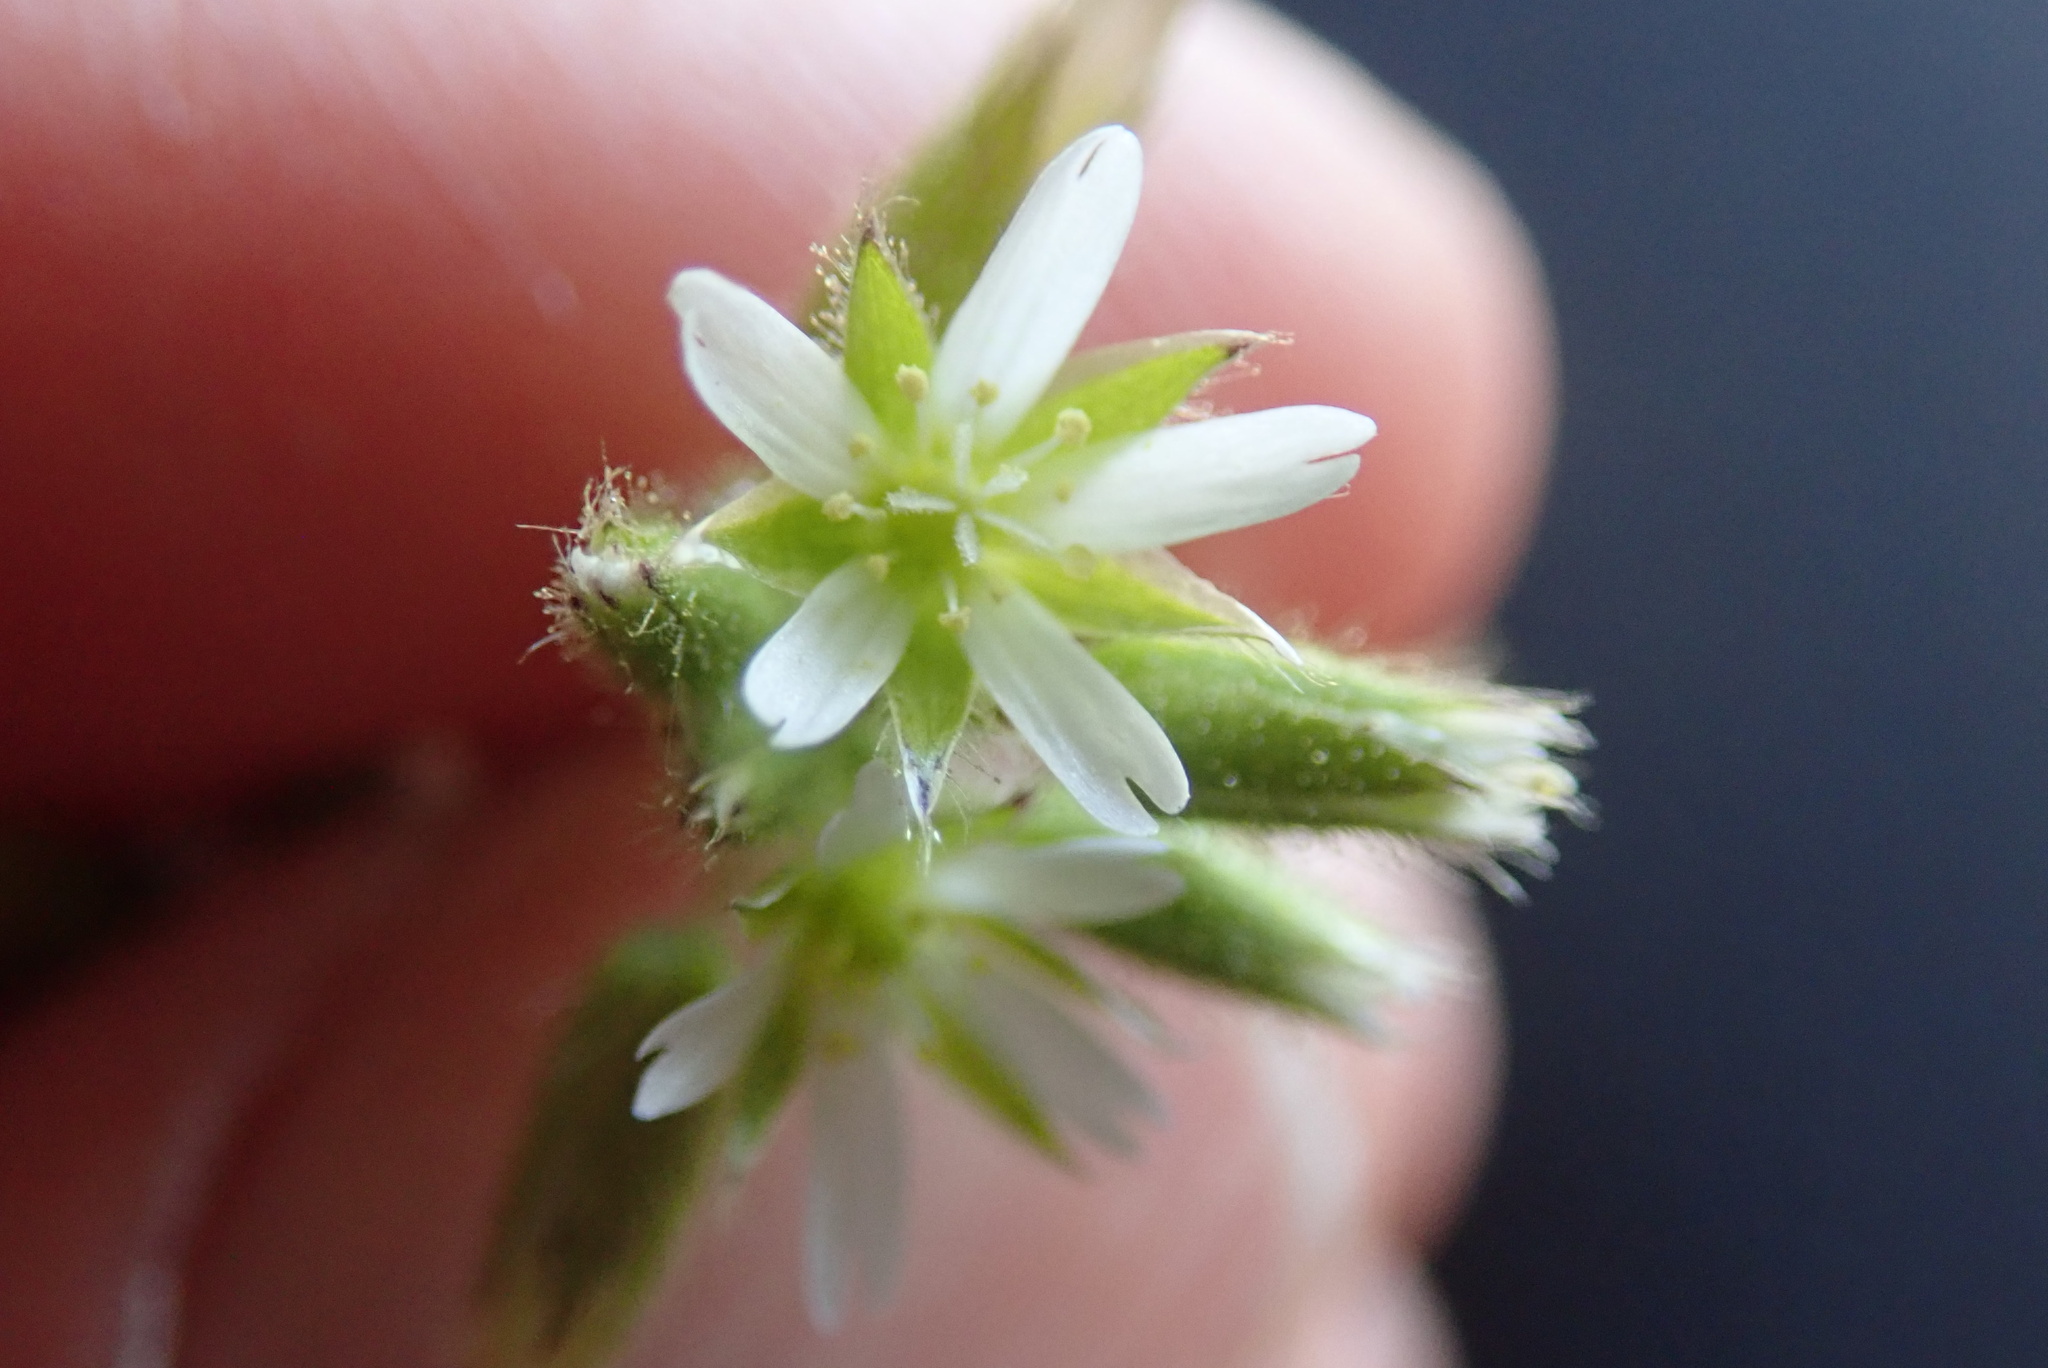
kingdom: Plantae
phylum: Tracheophyta
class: Magnoliopsida
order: Caryophyllales
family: Caryophyllaceae
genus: Cerastium
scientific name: Cerastium glomeratum
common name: Sticky chickweed
